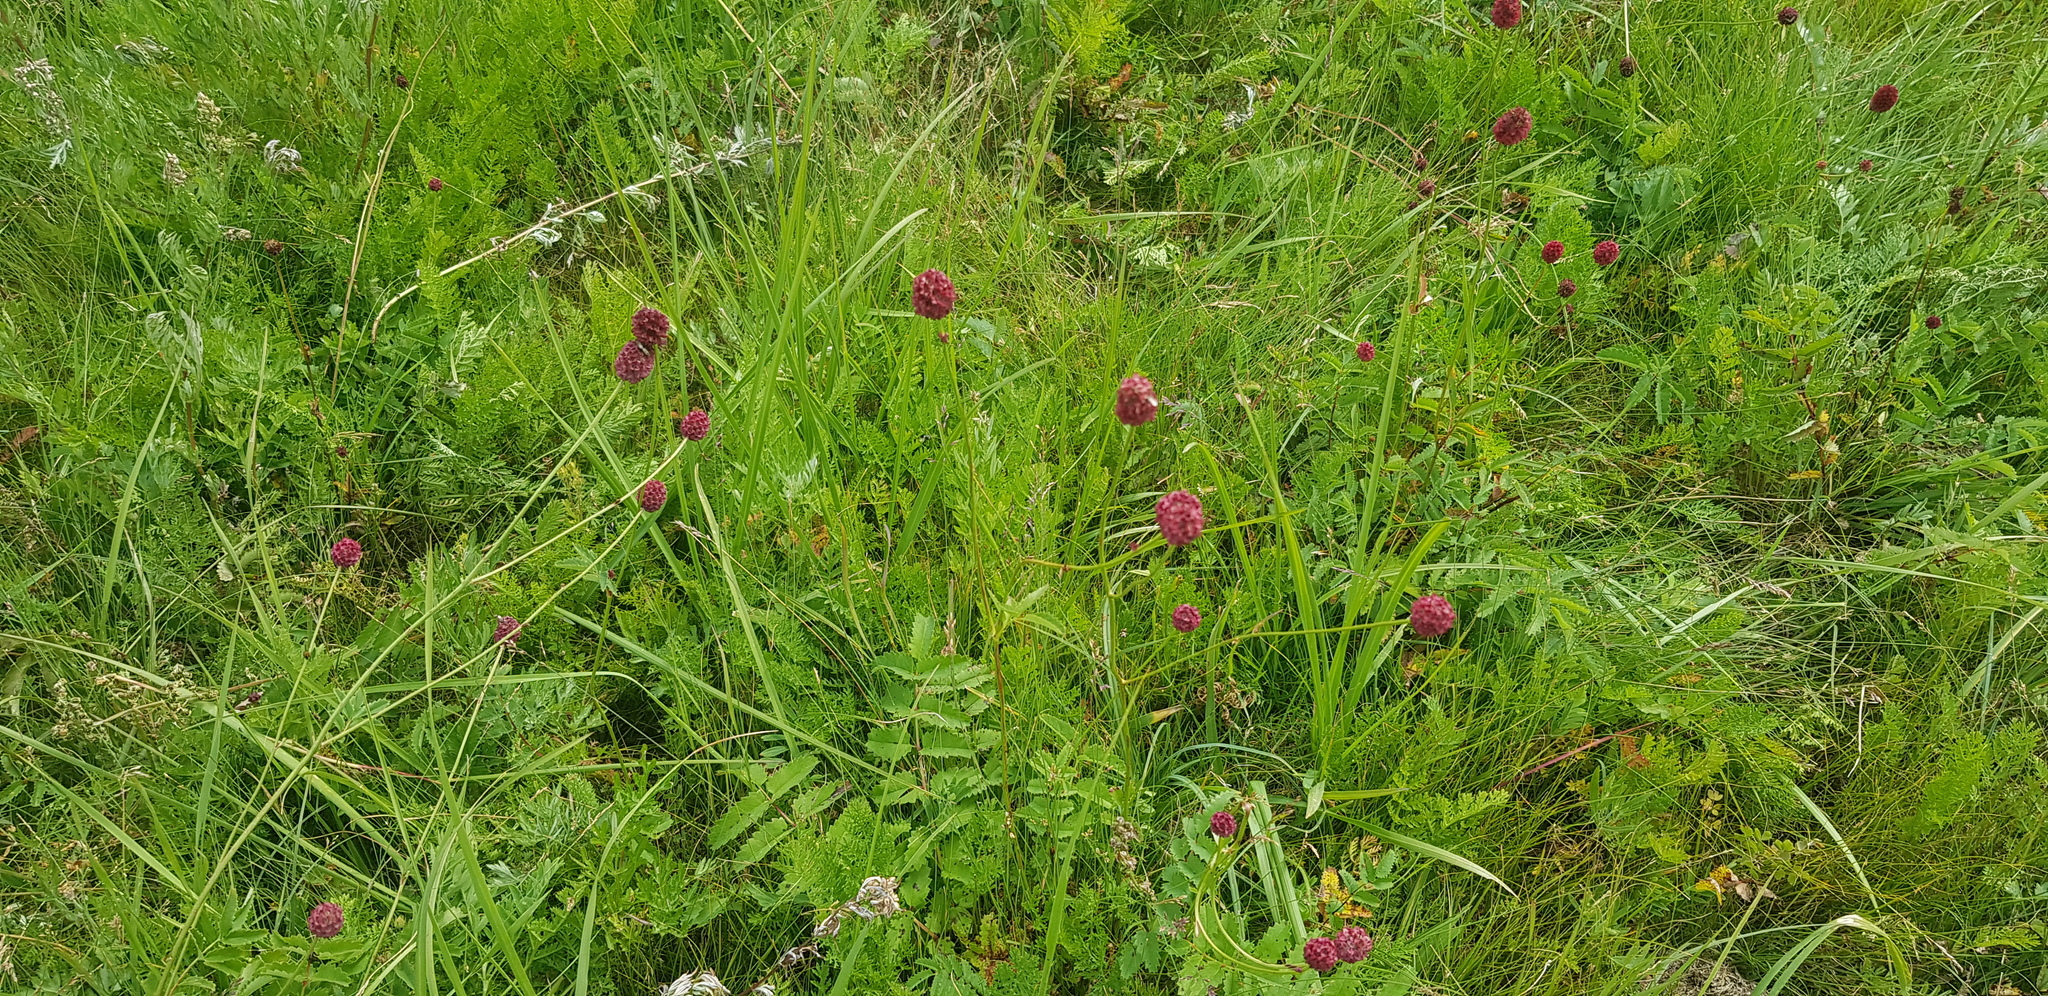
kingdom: Plantae
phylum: Tracheophyta
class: Magnoliopsida
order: Rosales
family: Rosaceae
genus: Sanguisorba
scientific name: Sanguisorba officinalis
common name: Great burnet
